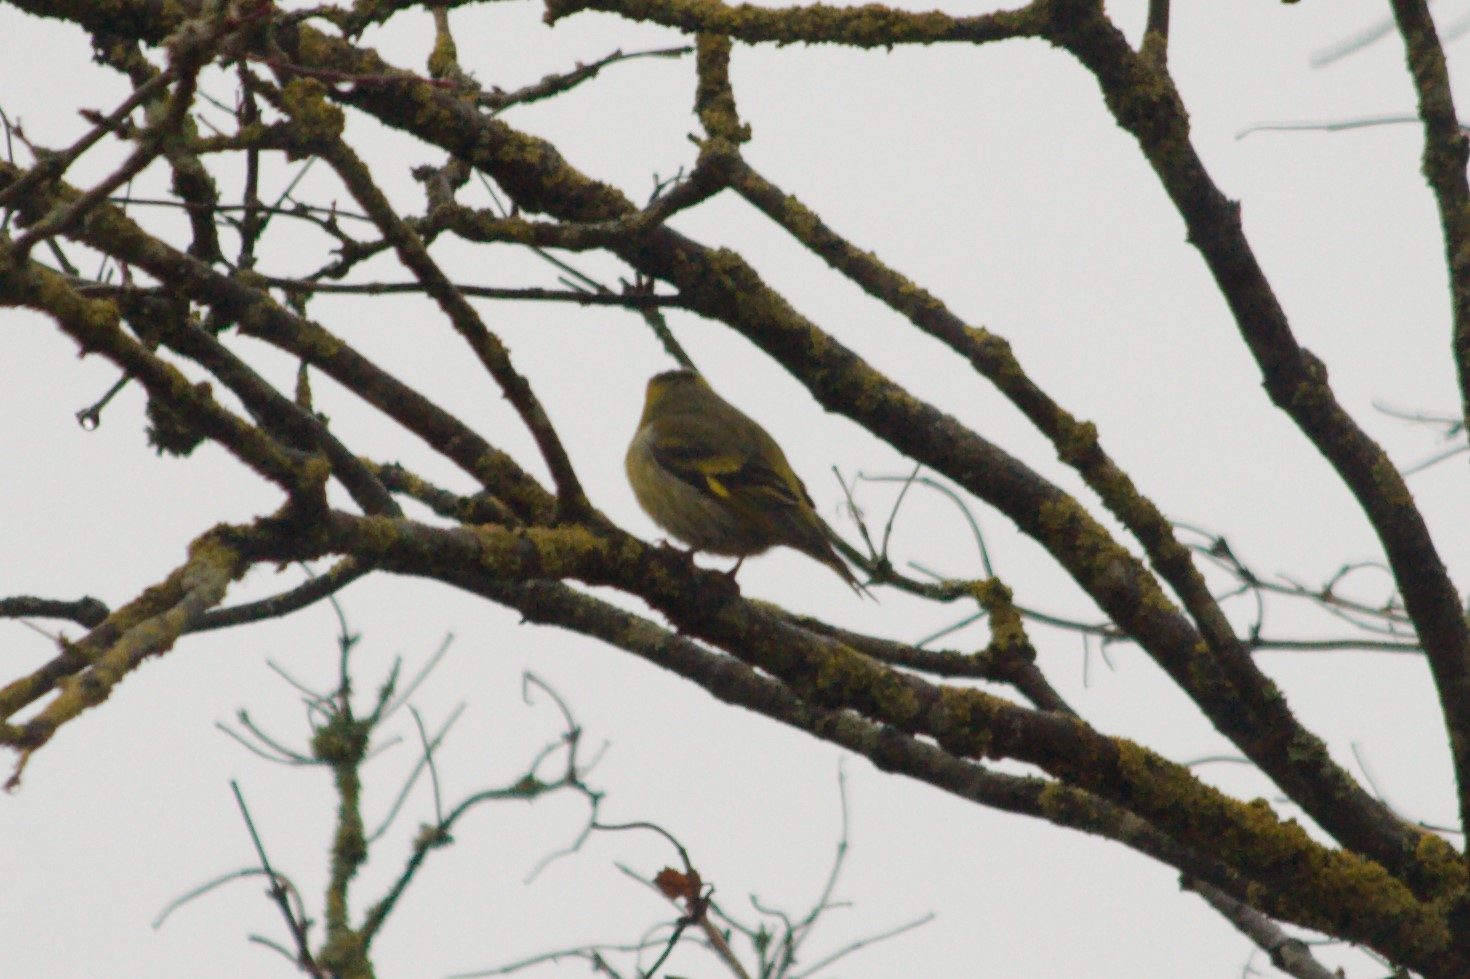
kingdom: Animalia
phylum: Chordata
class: Aves
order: Passeriformes
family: Fringillidae
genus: Spinus
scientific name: Spinus spinus
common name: Eurasian siskin
